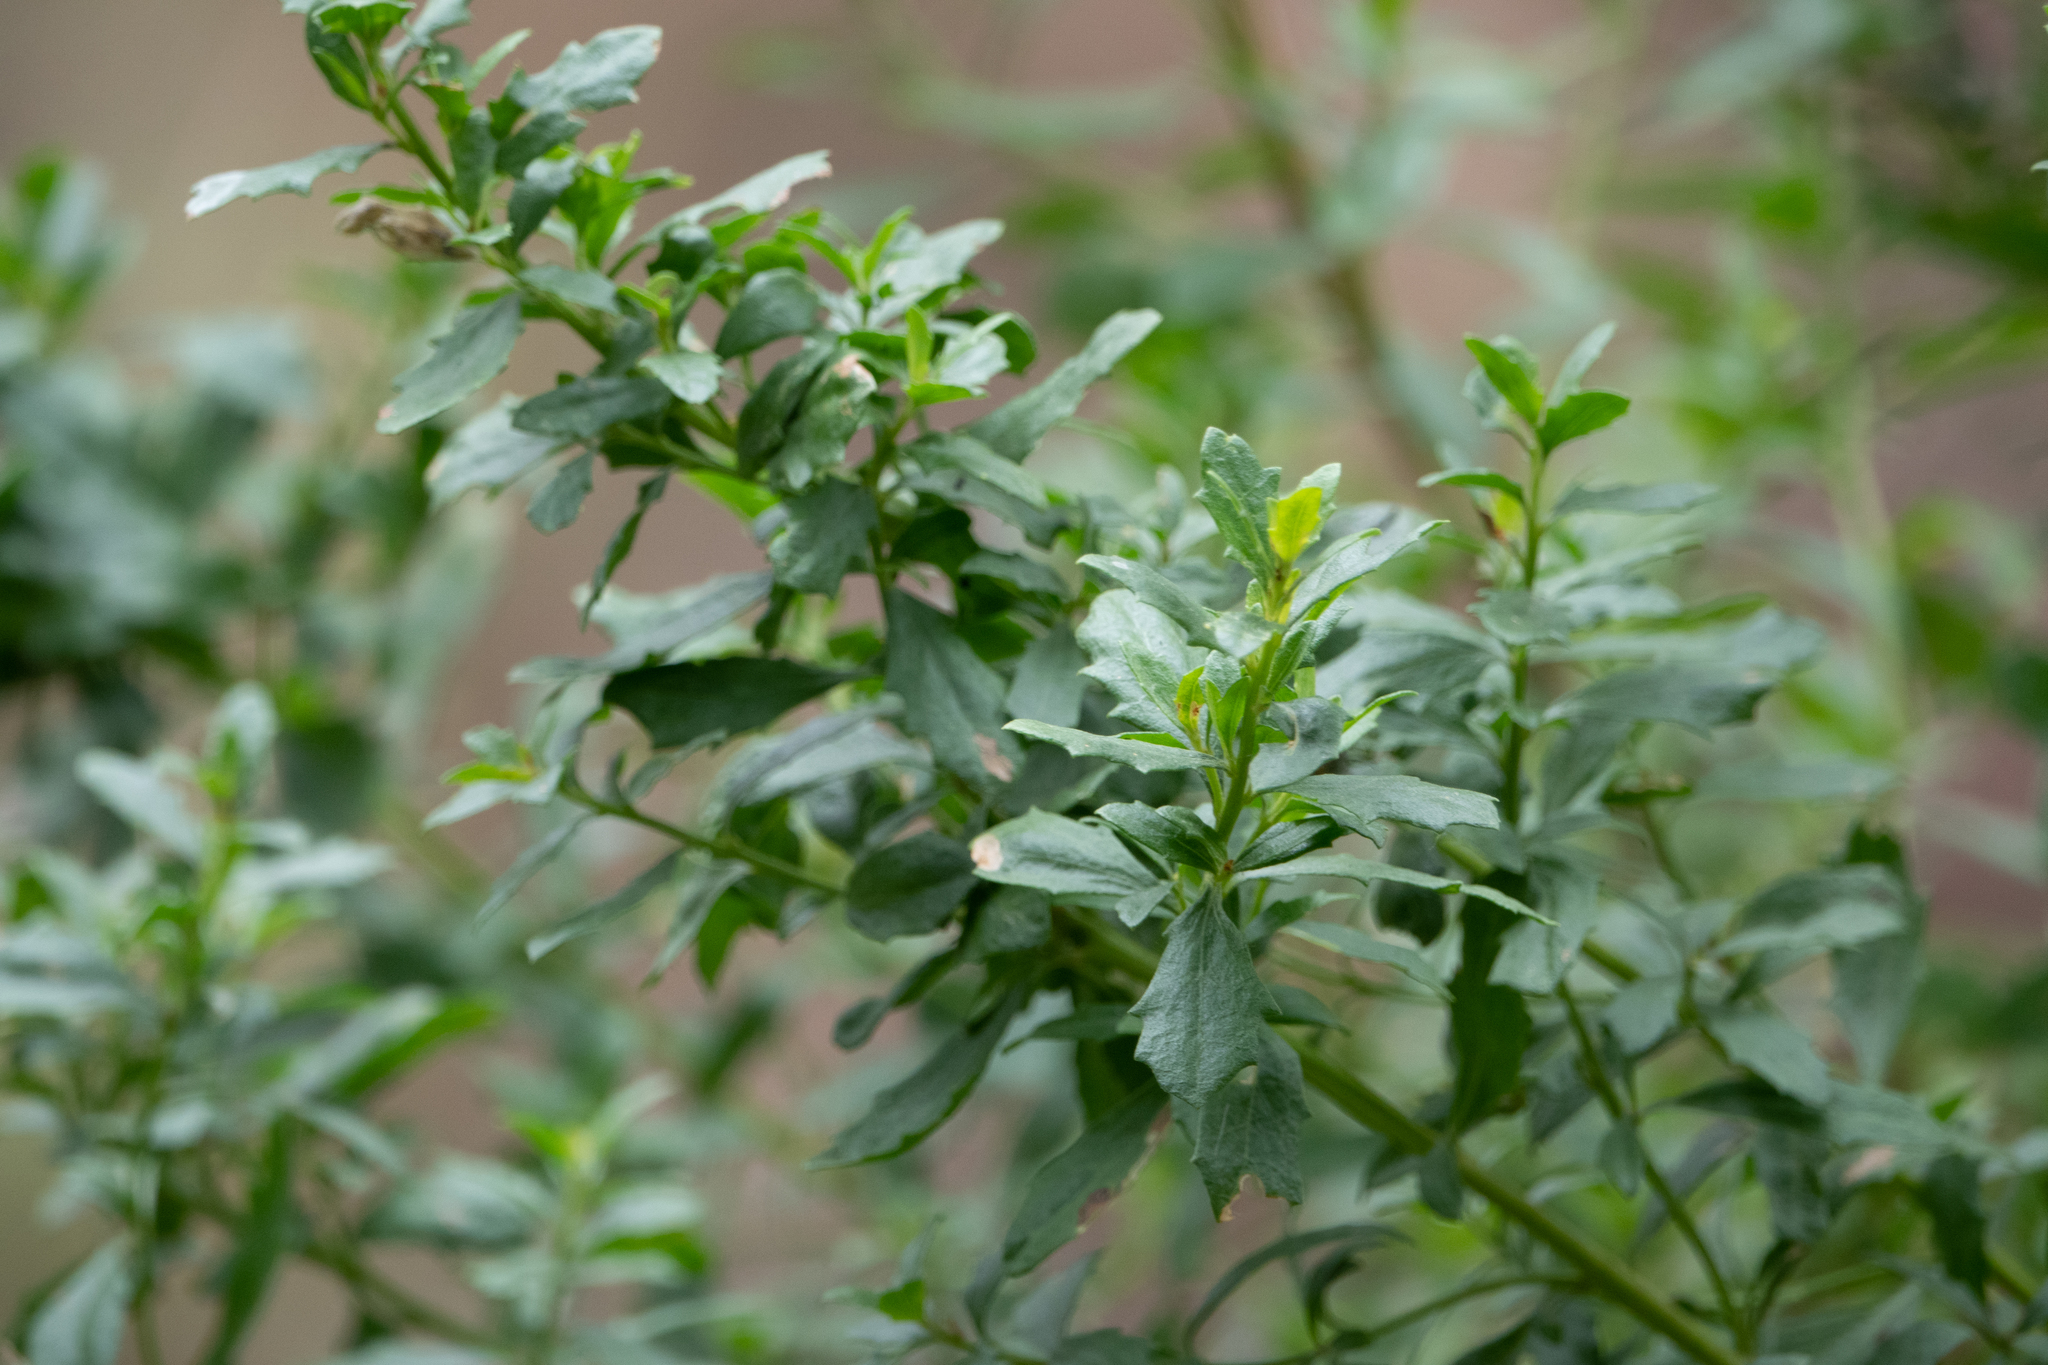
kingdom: Plantae
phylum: Tracheophyta
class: Magnoliopsida
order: Asterales
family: Asteraceae
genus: Baccharis
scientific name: Baccharis pilularis
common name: Coyotebrush
